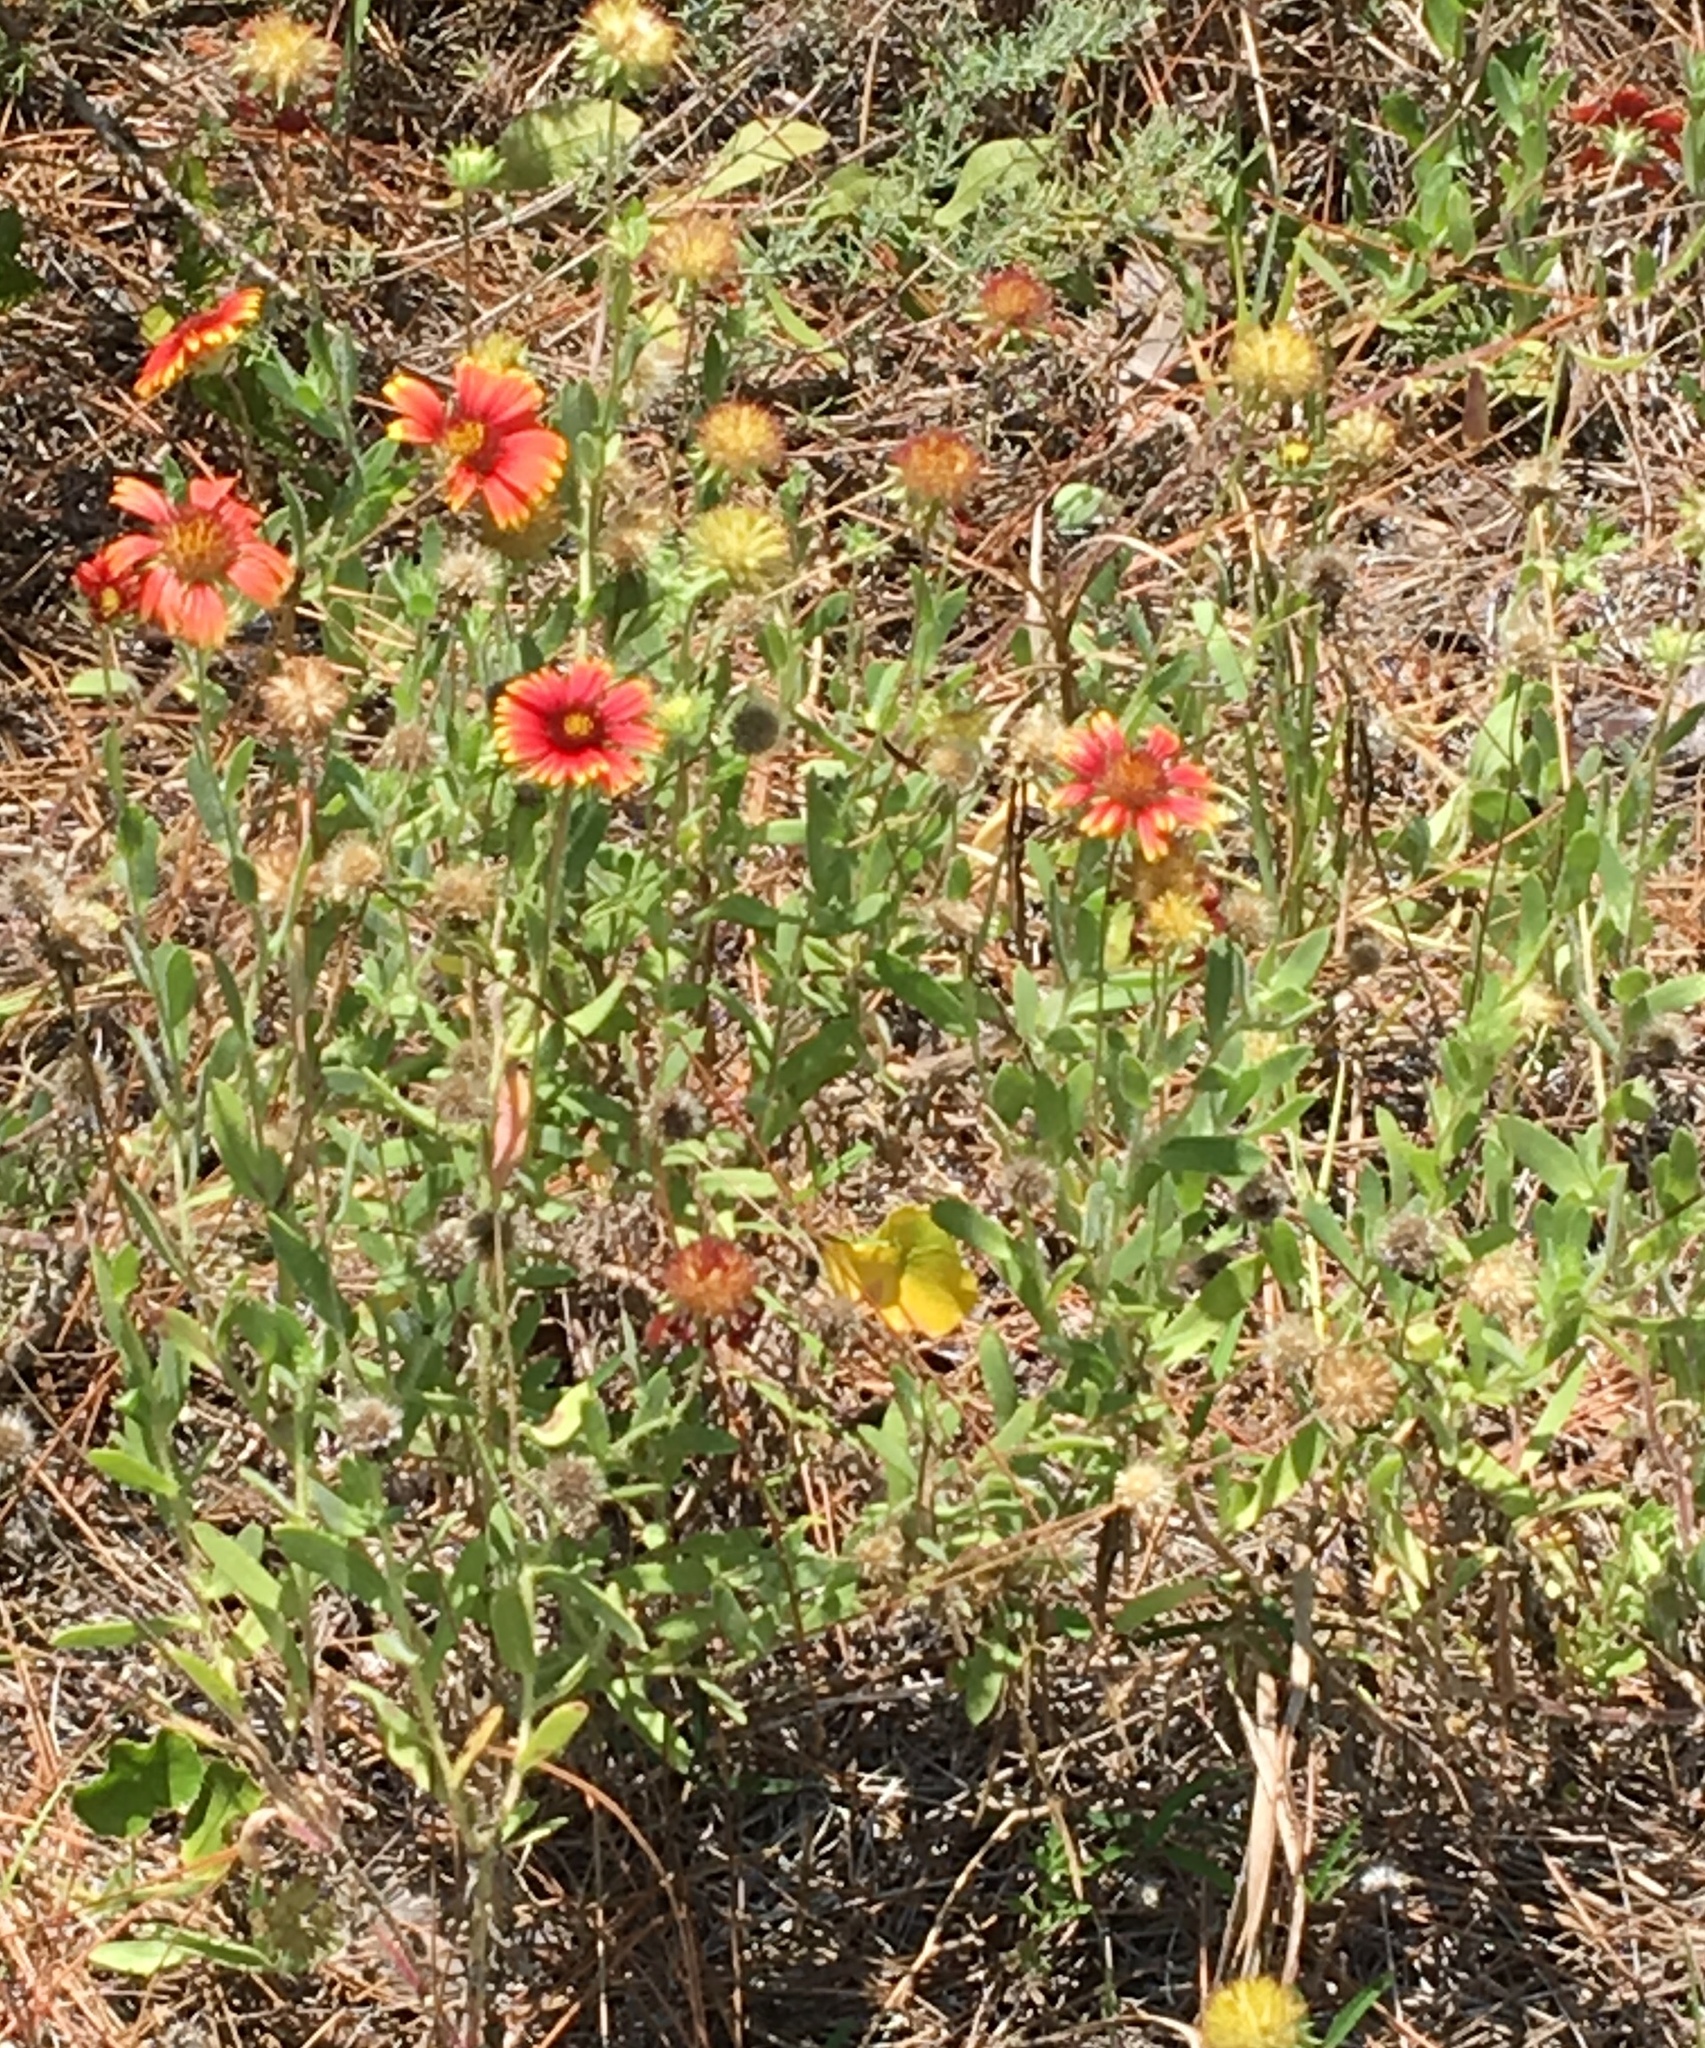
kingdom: Plantae
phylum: Tracheophyta
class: Magnoliopsida
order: Asterales
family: Asteraceae
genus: Gaillardia
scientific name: Gaillardia pulchella
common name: Firewheel
